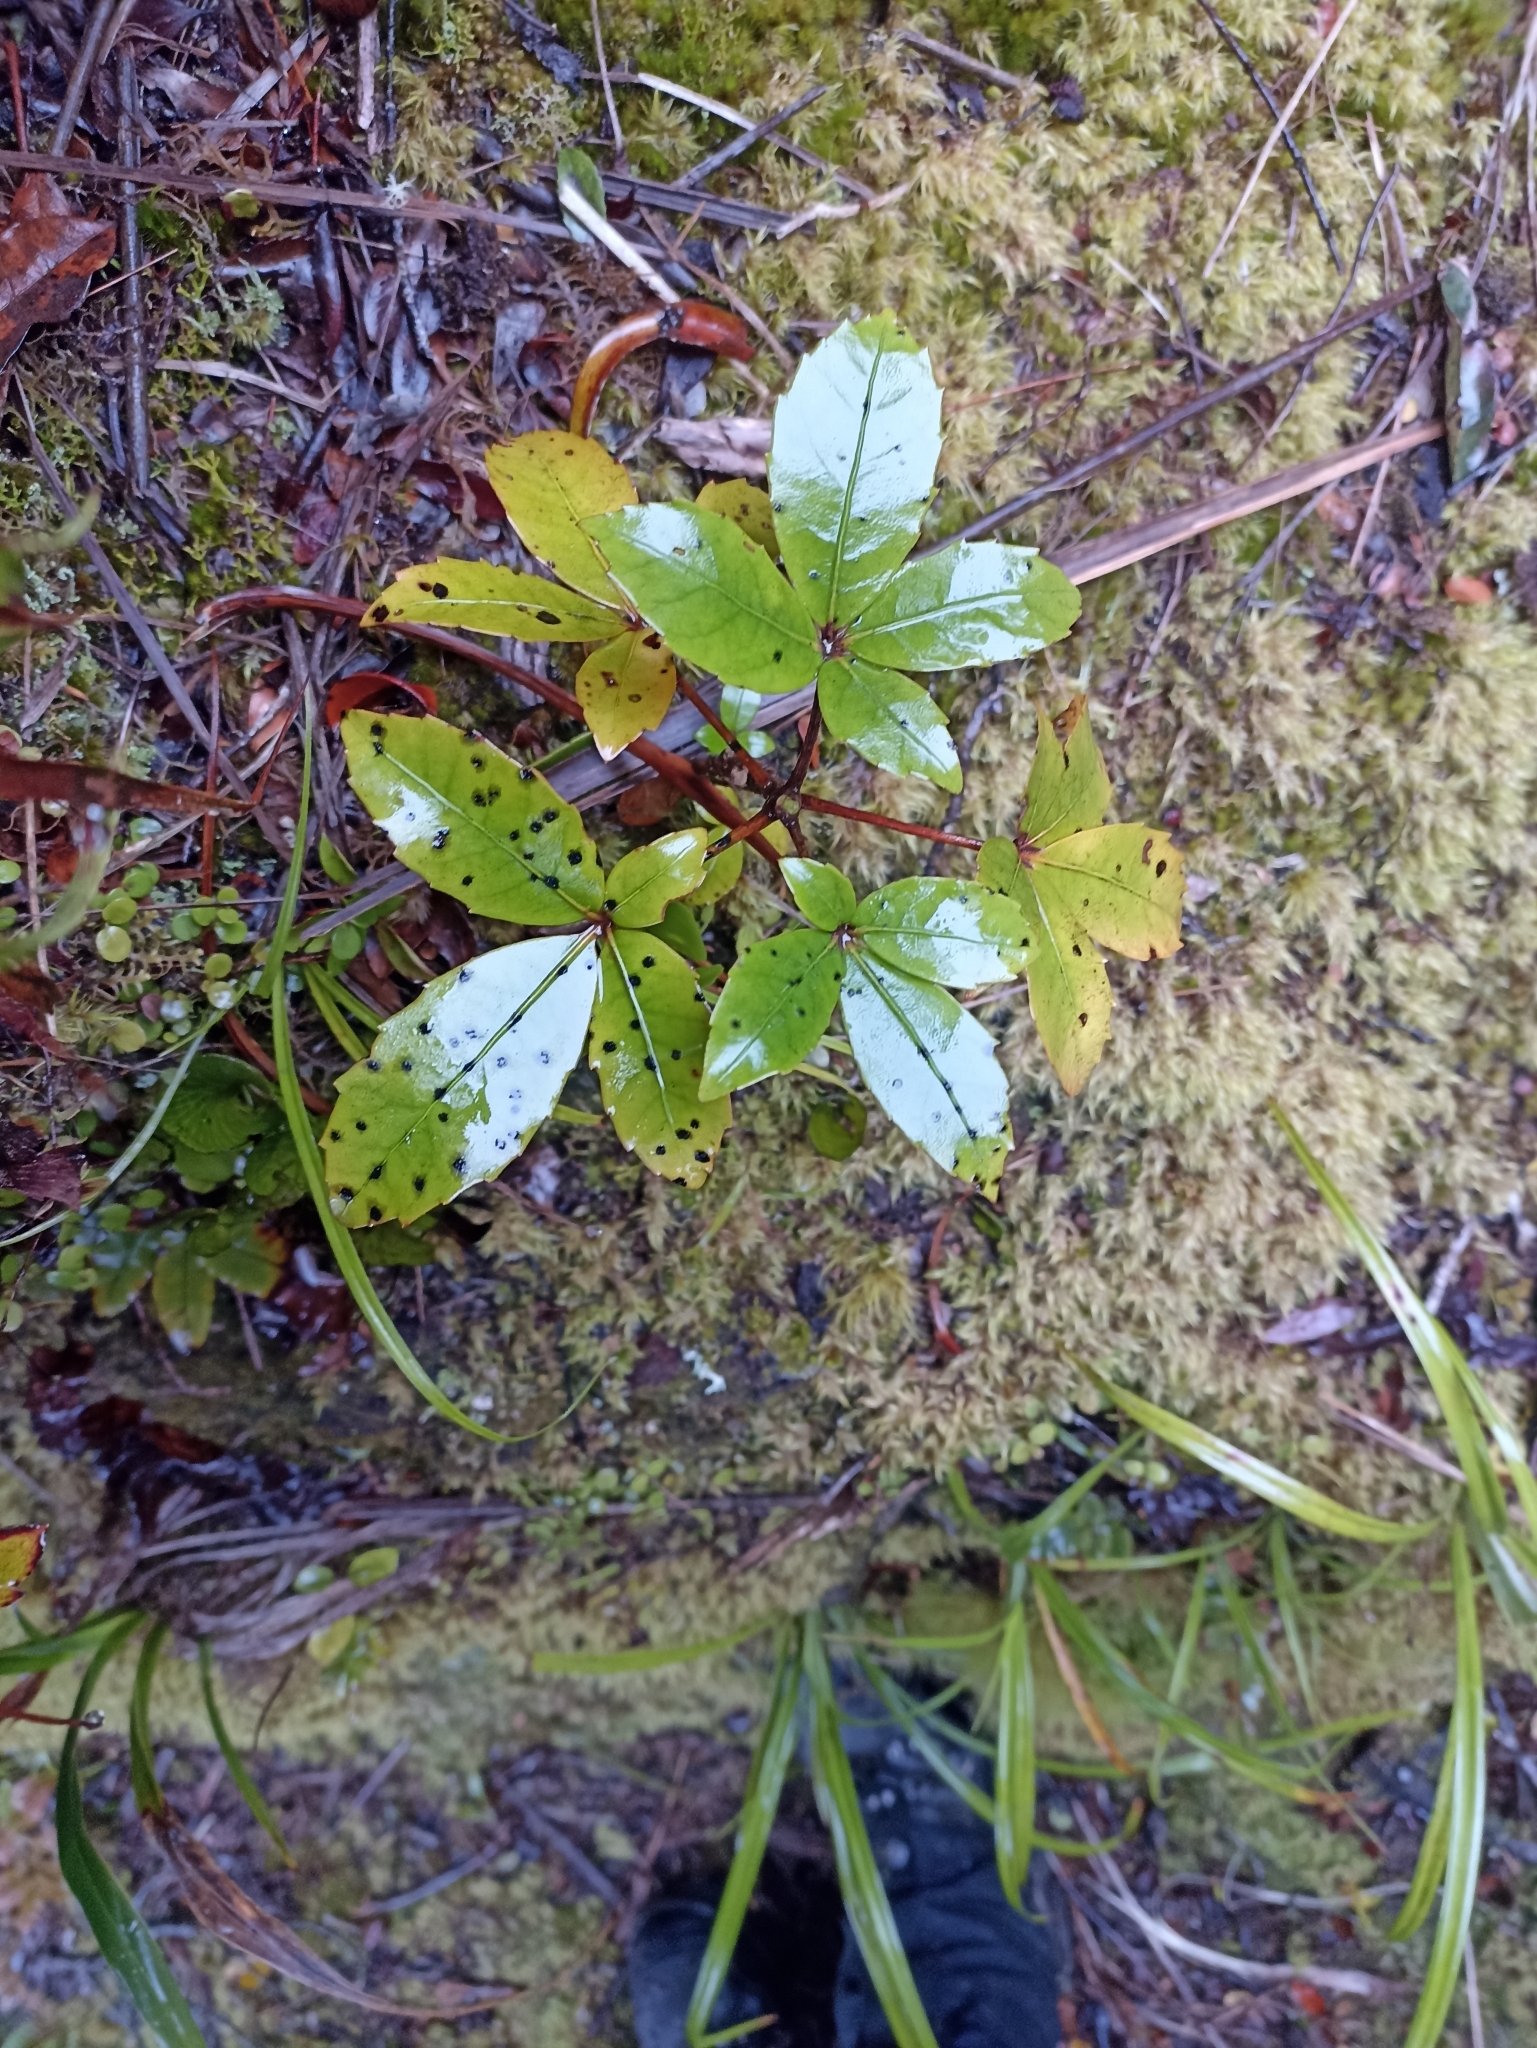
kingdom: Plantae
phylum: Tracheophyta
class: Magnoliopsida
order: Apiales
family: Araliaceae
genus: Neopanax
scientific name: Neopanax colensoi
